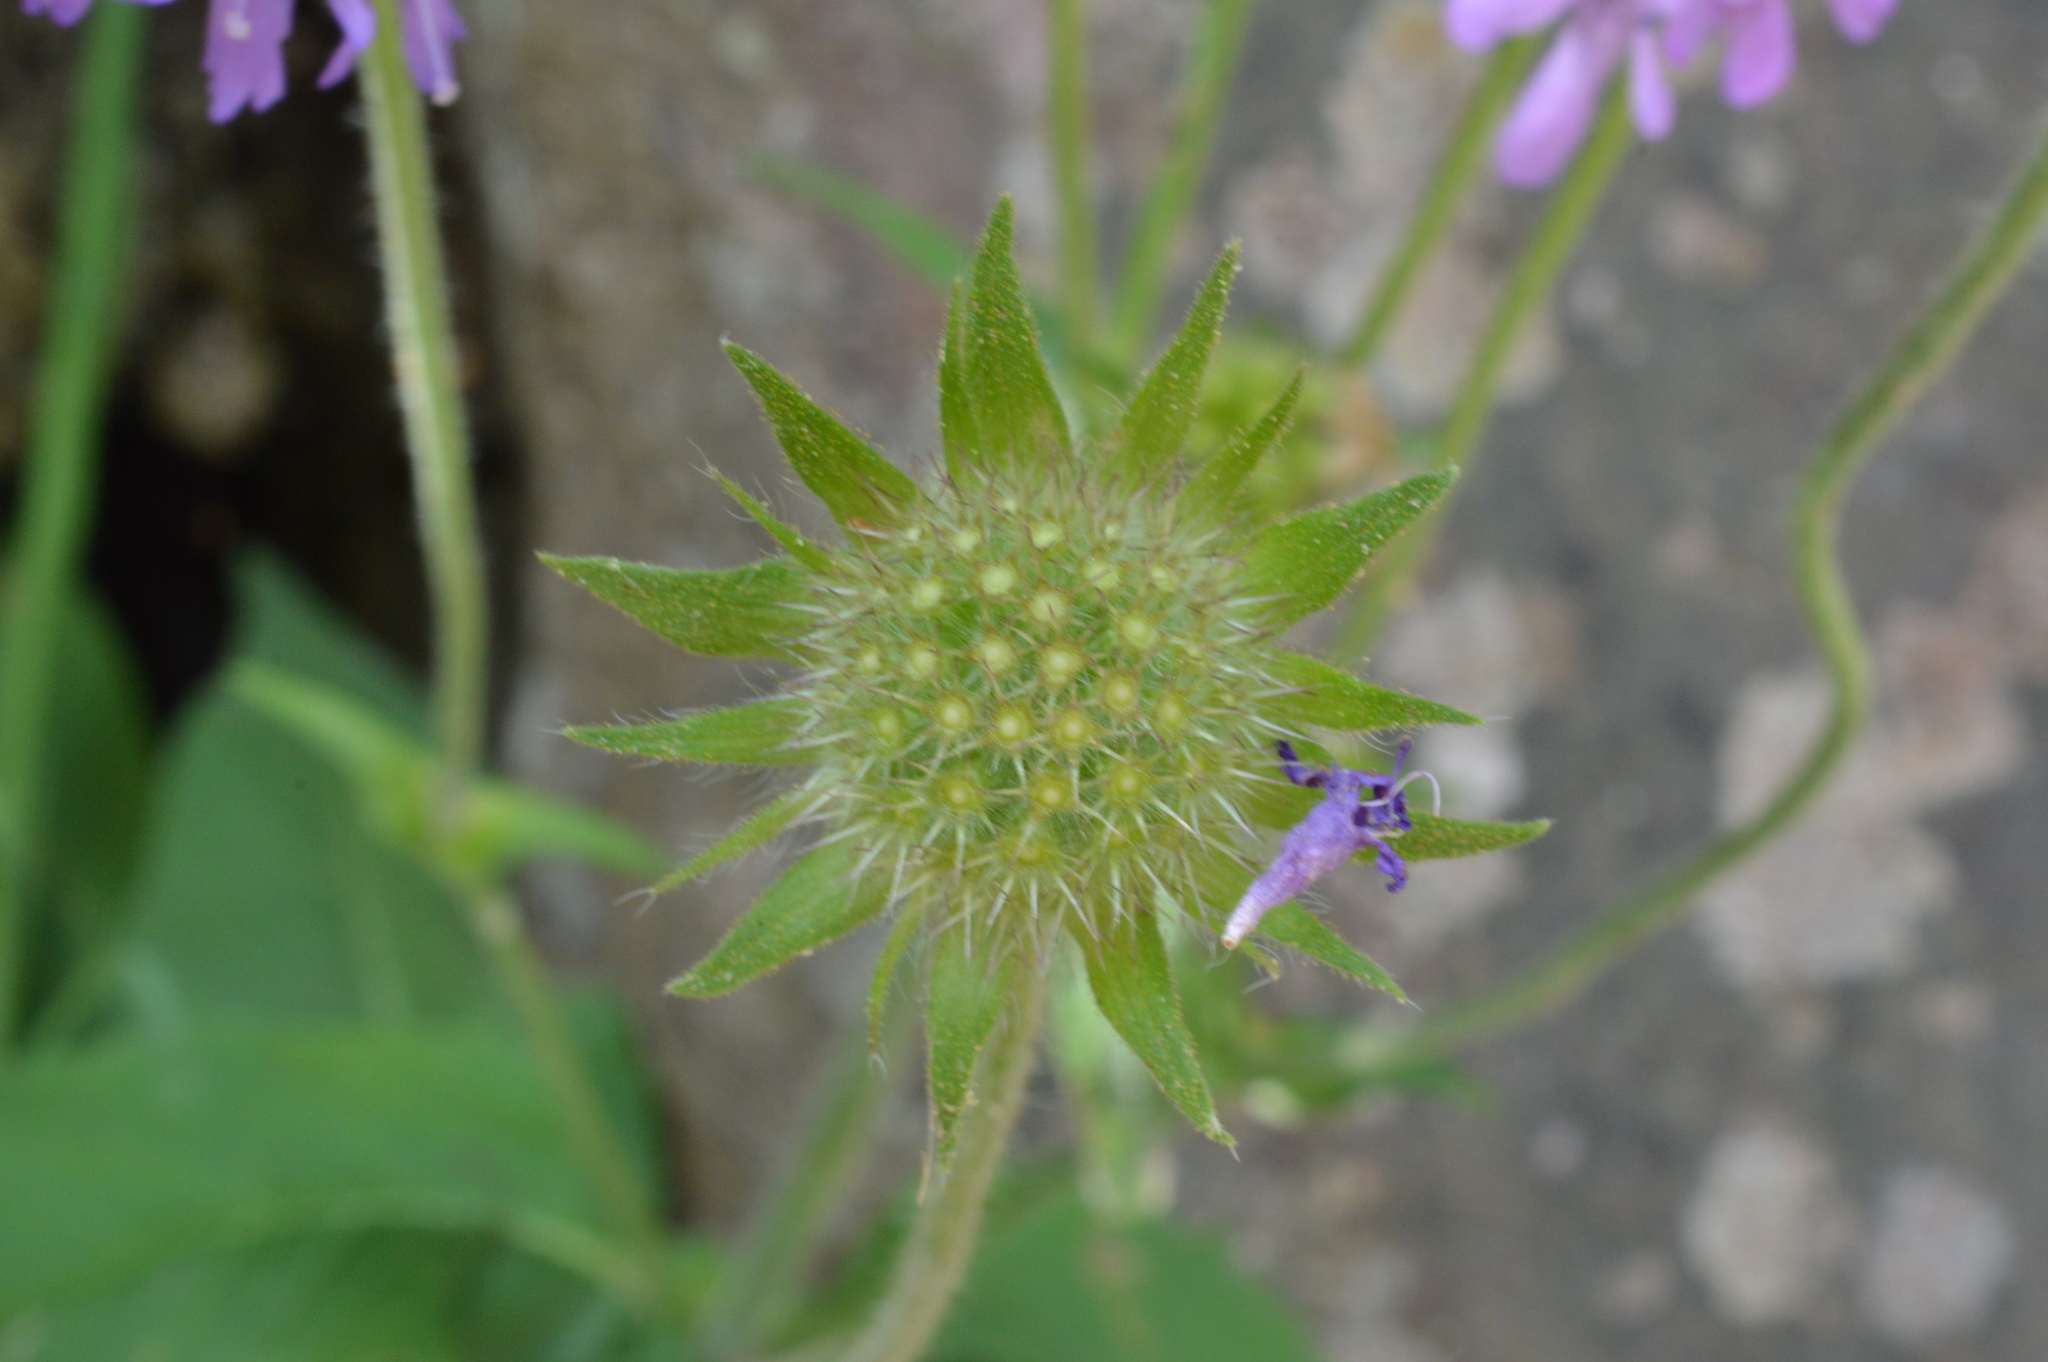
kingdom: Plantae
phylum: Tracheophyta
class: Magnoliopsida
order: Dipsacales
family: Caprifoliaceae
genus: Knautia
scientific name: Knautia arvensis
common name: Field scabiosa
